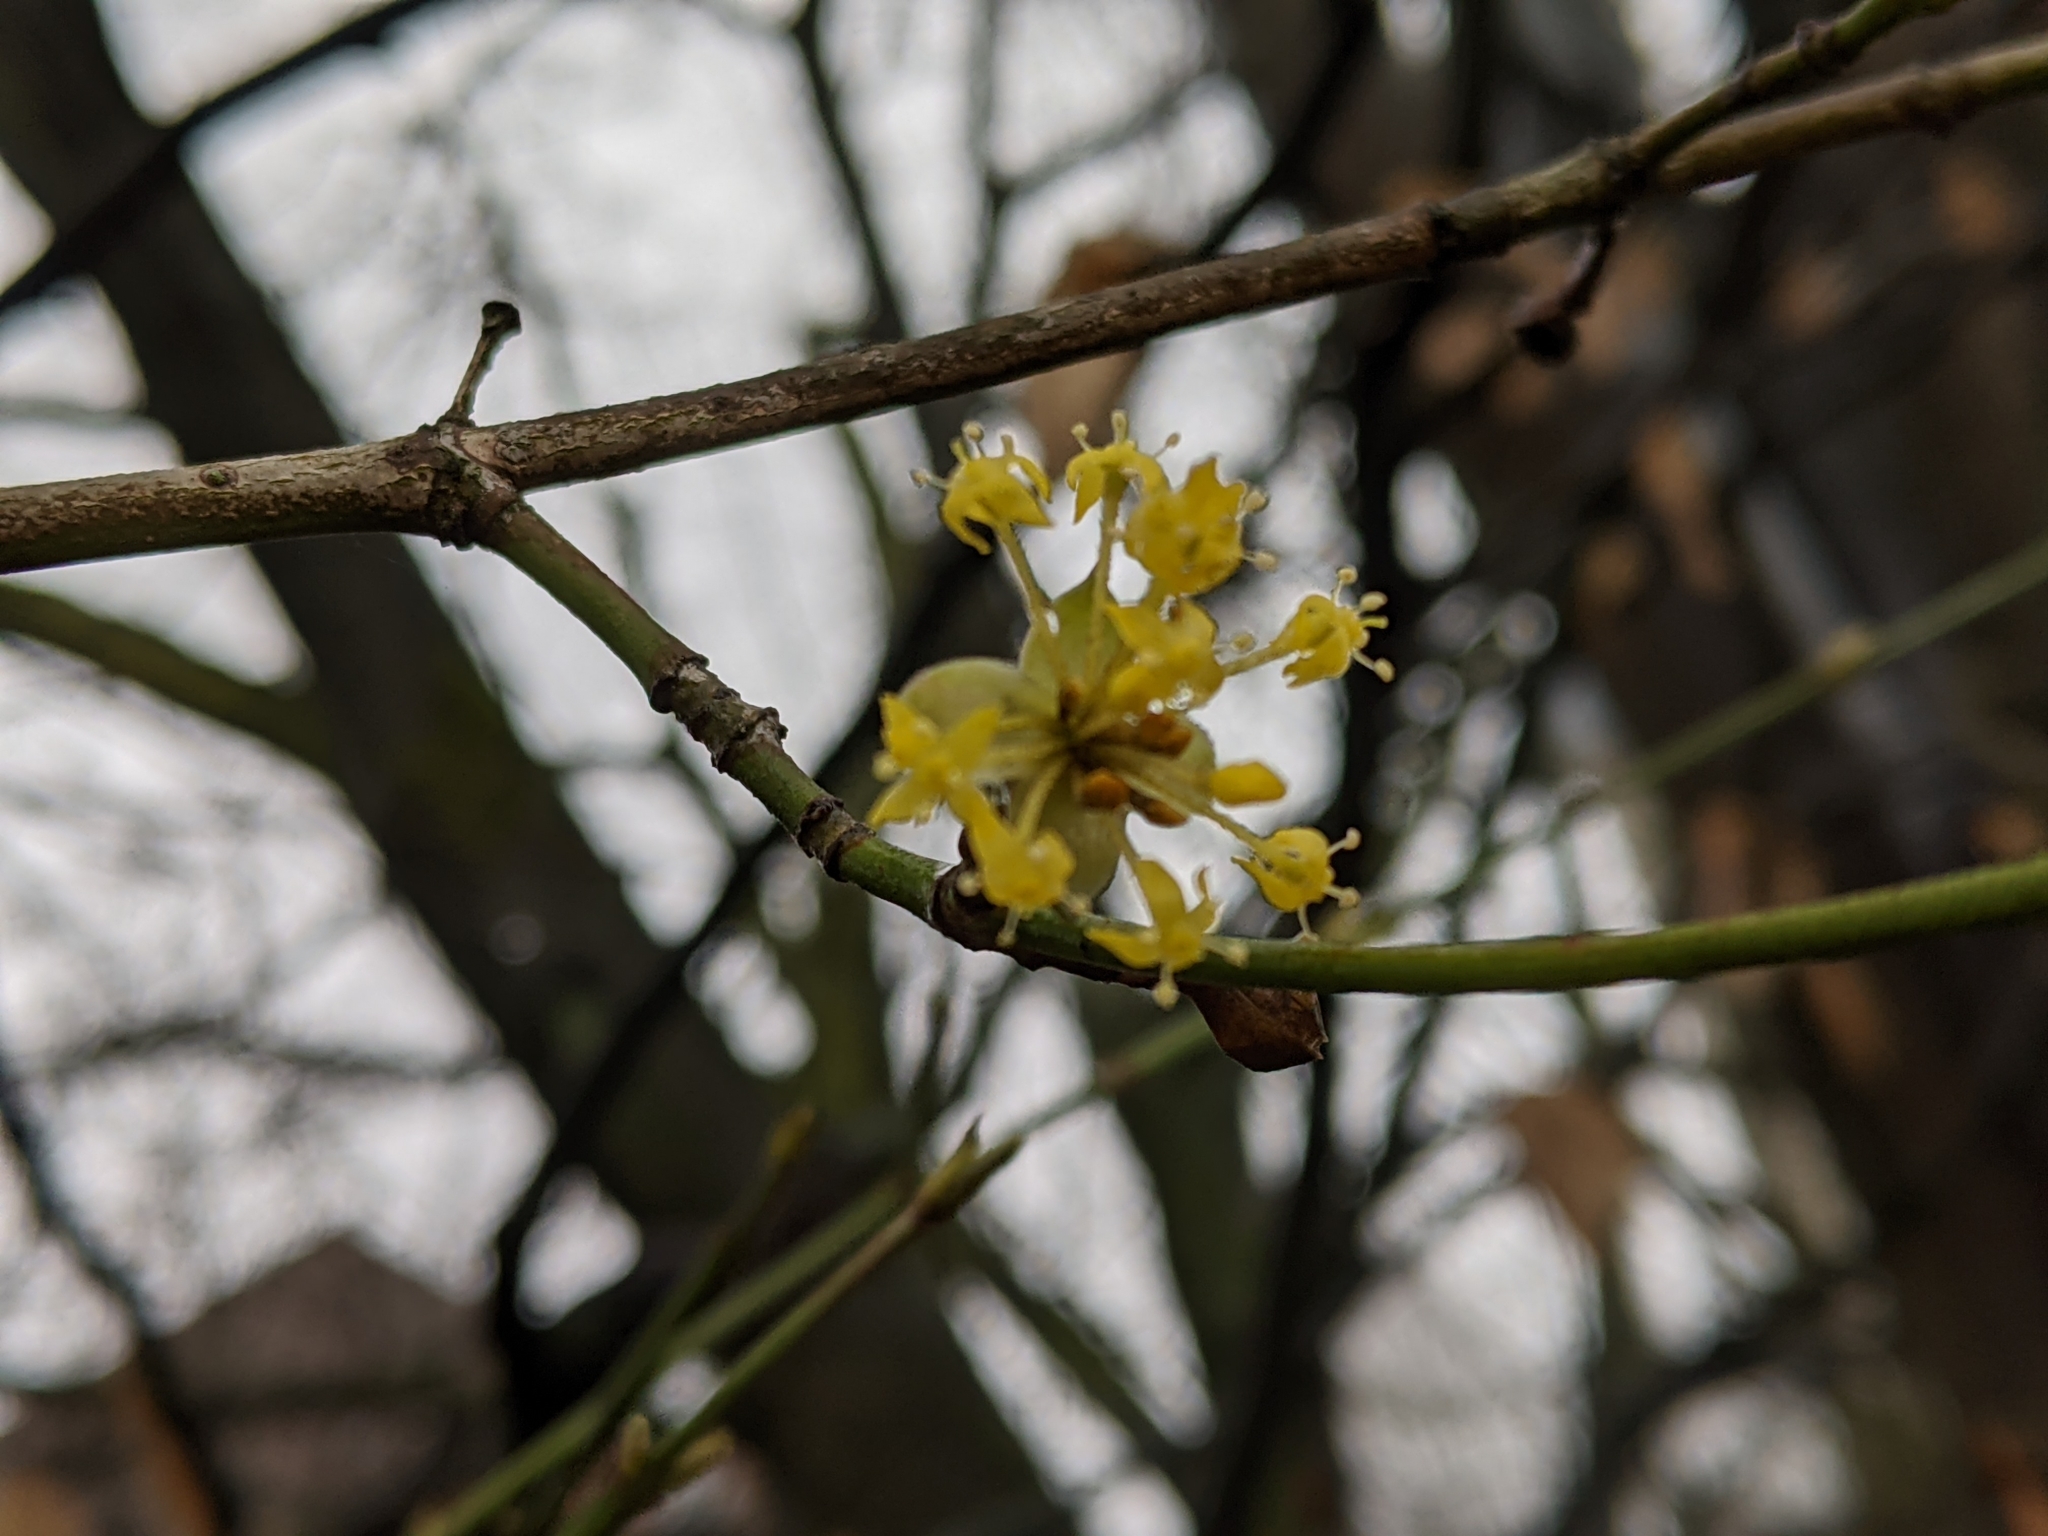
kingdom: Plantae
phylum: Tracheophyta
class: Magnoliopsida
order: Cornales
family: Cornaceae
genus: Cornus
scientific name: Cornus mas
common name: Cornelian-cherry
